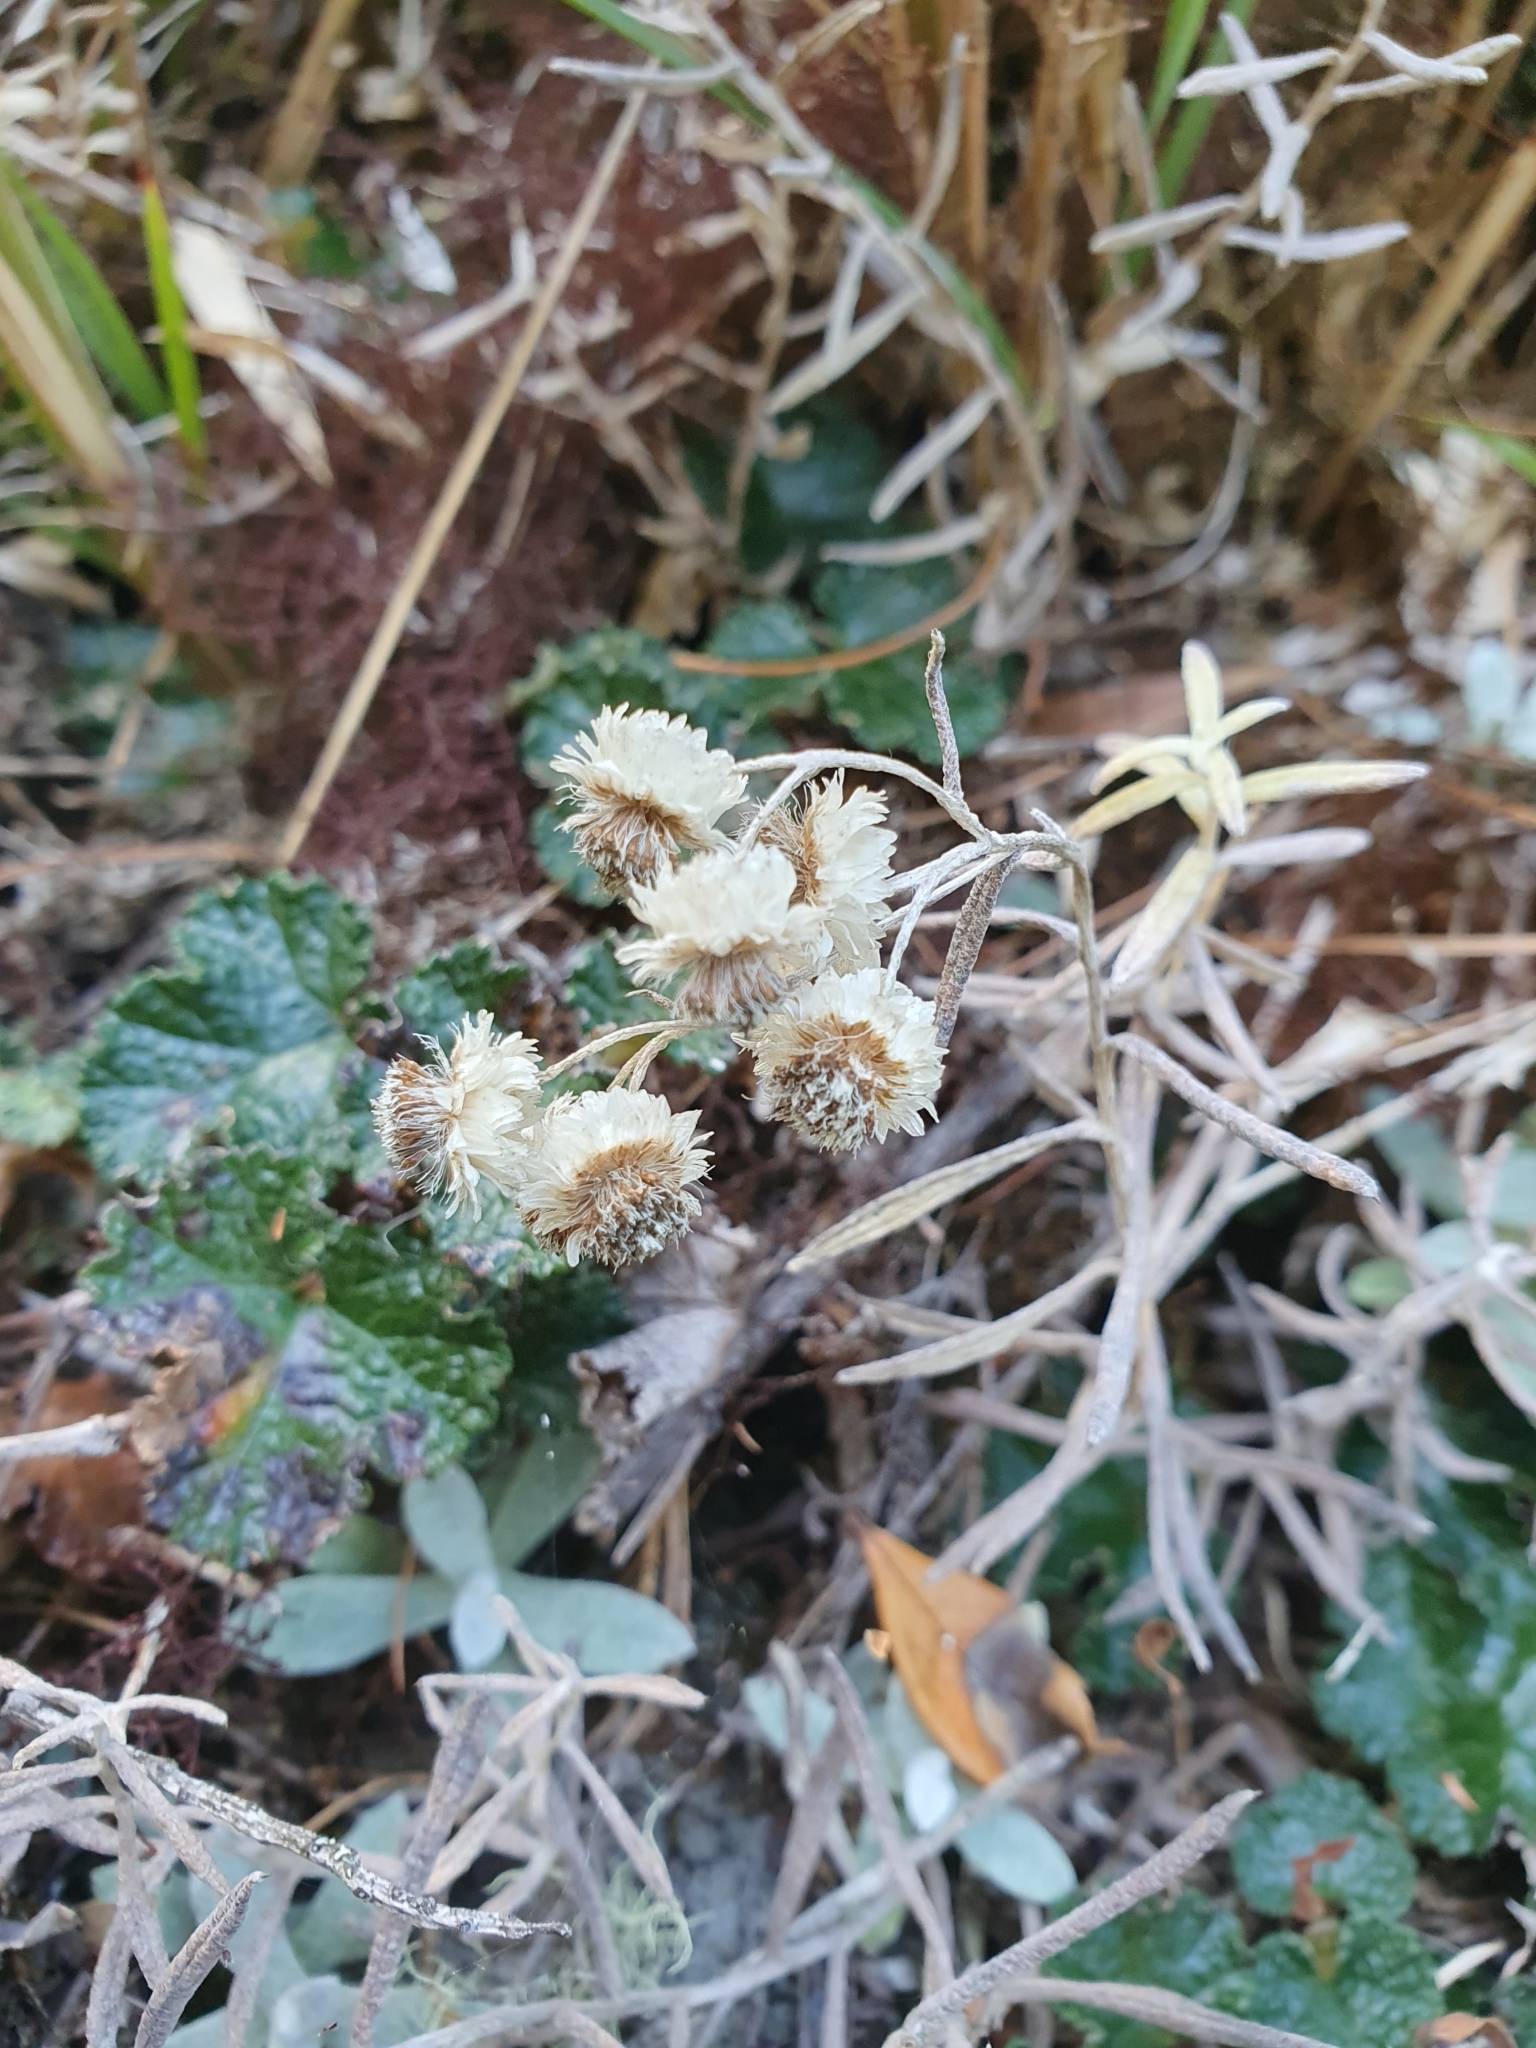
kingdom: Plantae
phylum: Tracheophyta
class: Magnoliopsida
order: Asterales
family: Asteraceae
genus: Anaphalis
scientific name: Anaphalis morrisonicola
